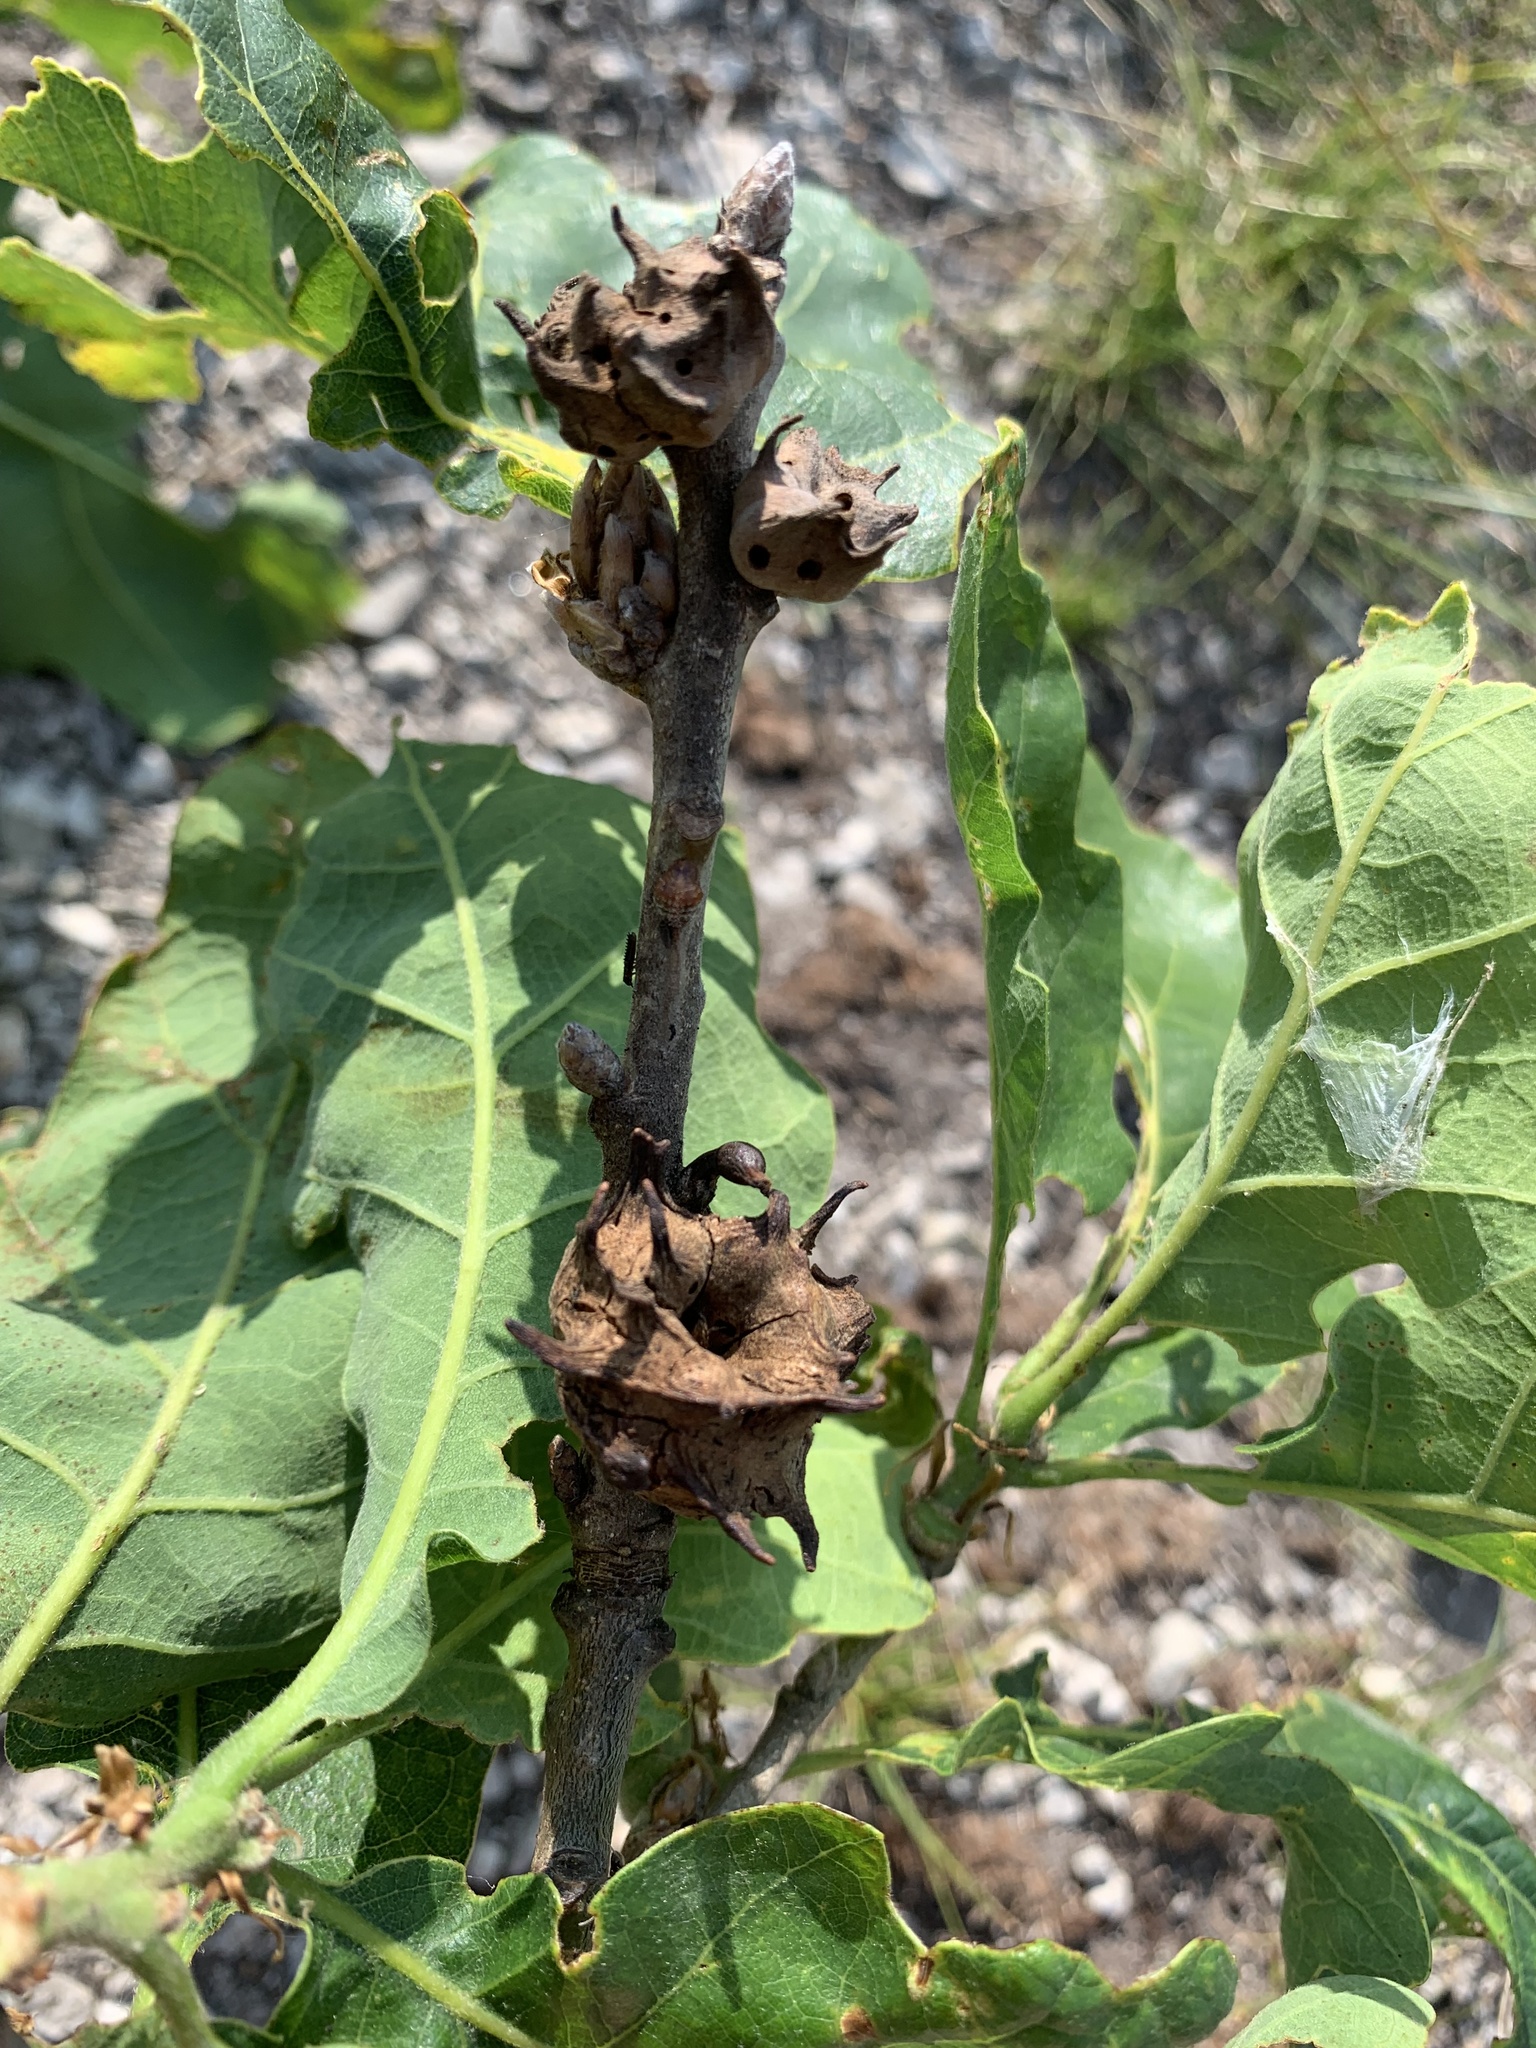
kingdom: Animalia
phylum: Arthropoda
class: Insecta
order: Hymenoptera
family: Cynipidae
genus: Andricus
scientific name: Andricus coriarius
